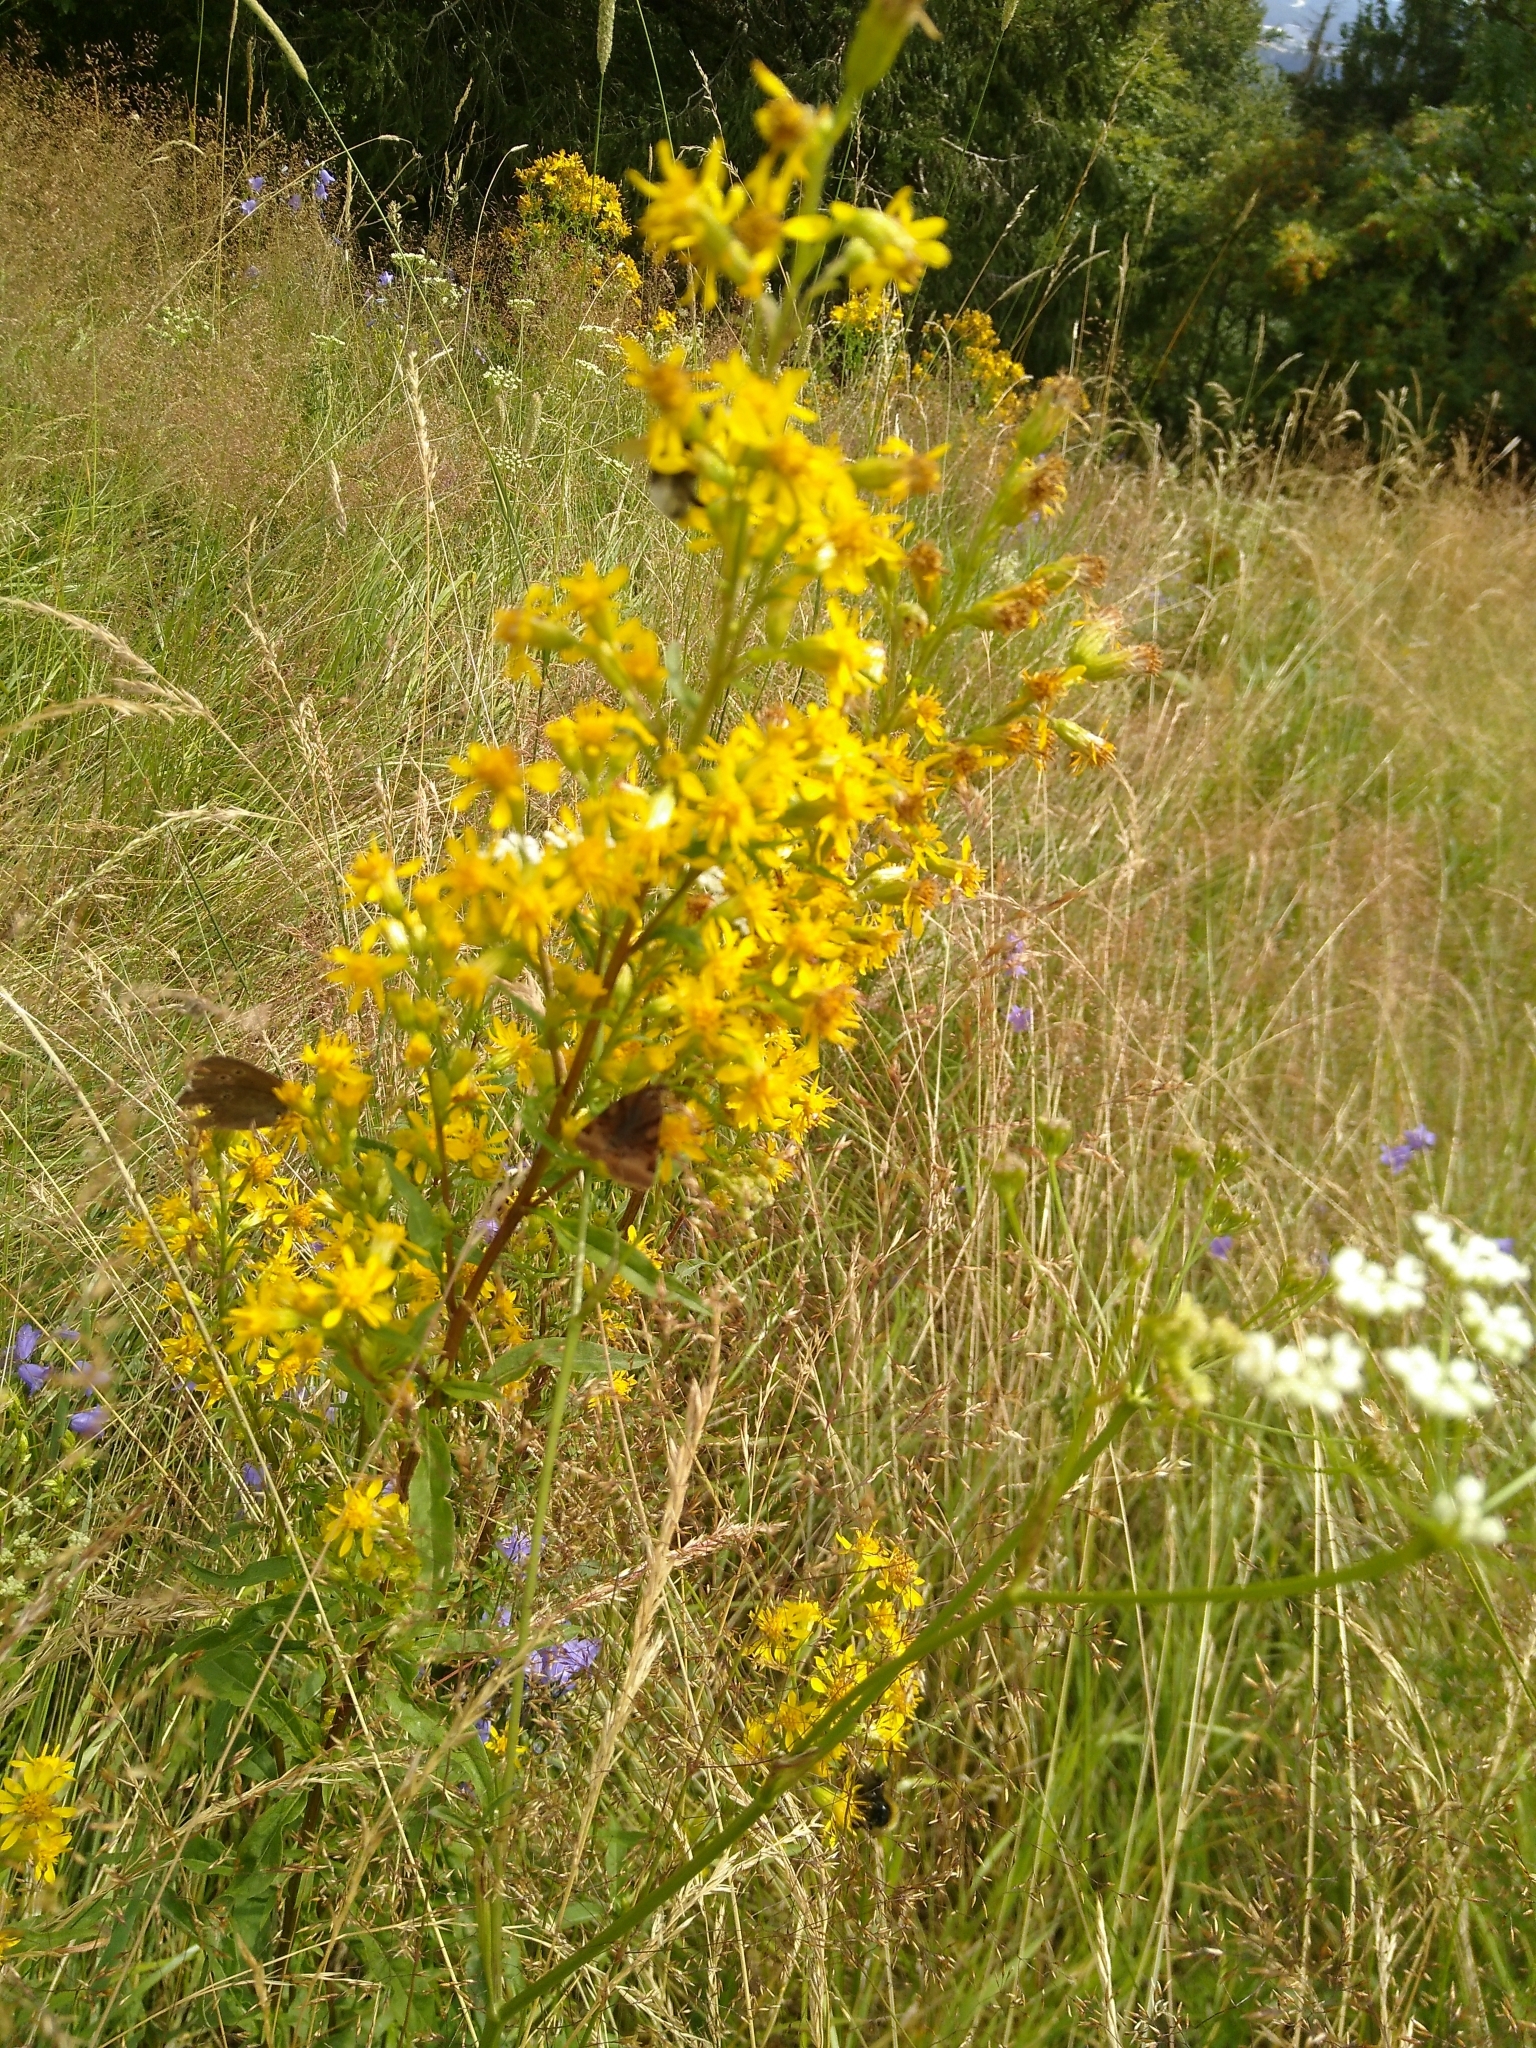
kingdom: Plantae
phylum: Tracheophyta
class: Magnoliopsida
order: Asterales
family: Asteraceae
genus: Solidago
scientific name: Solidago virgaurea
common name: Goldenrod
